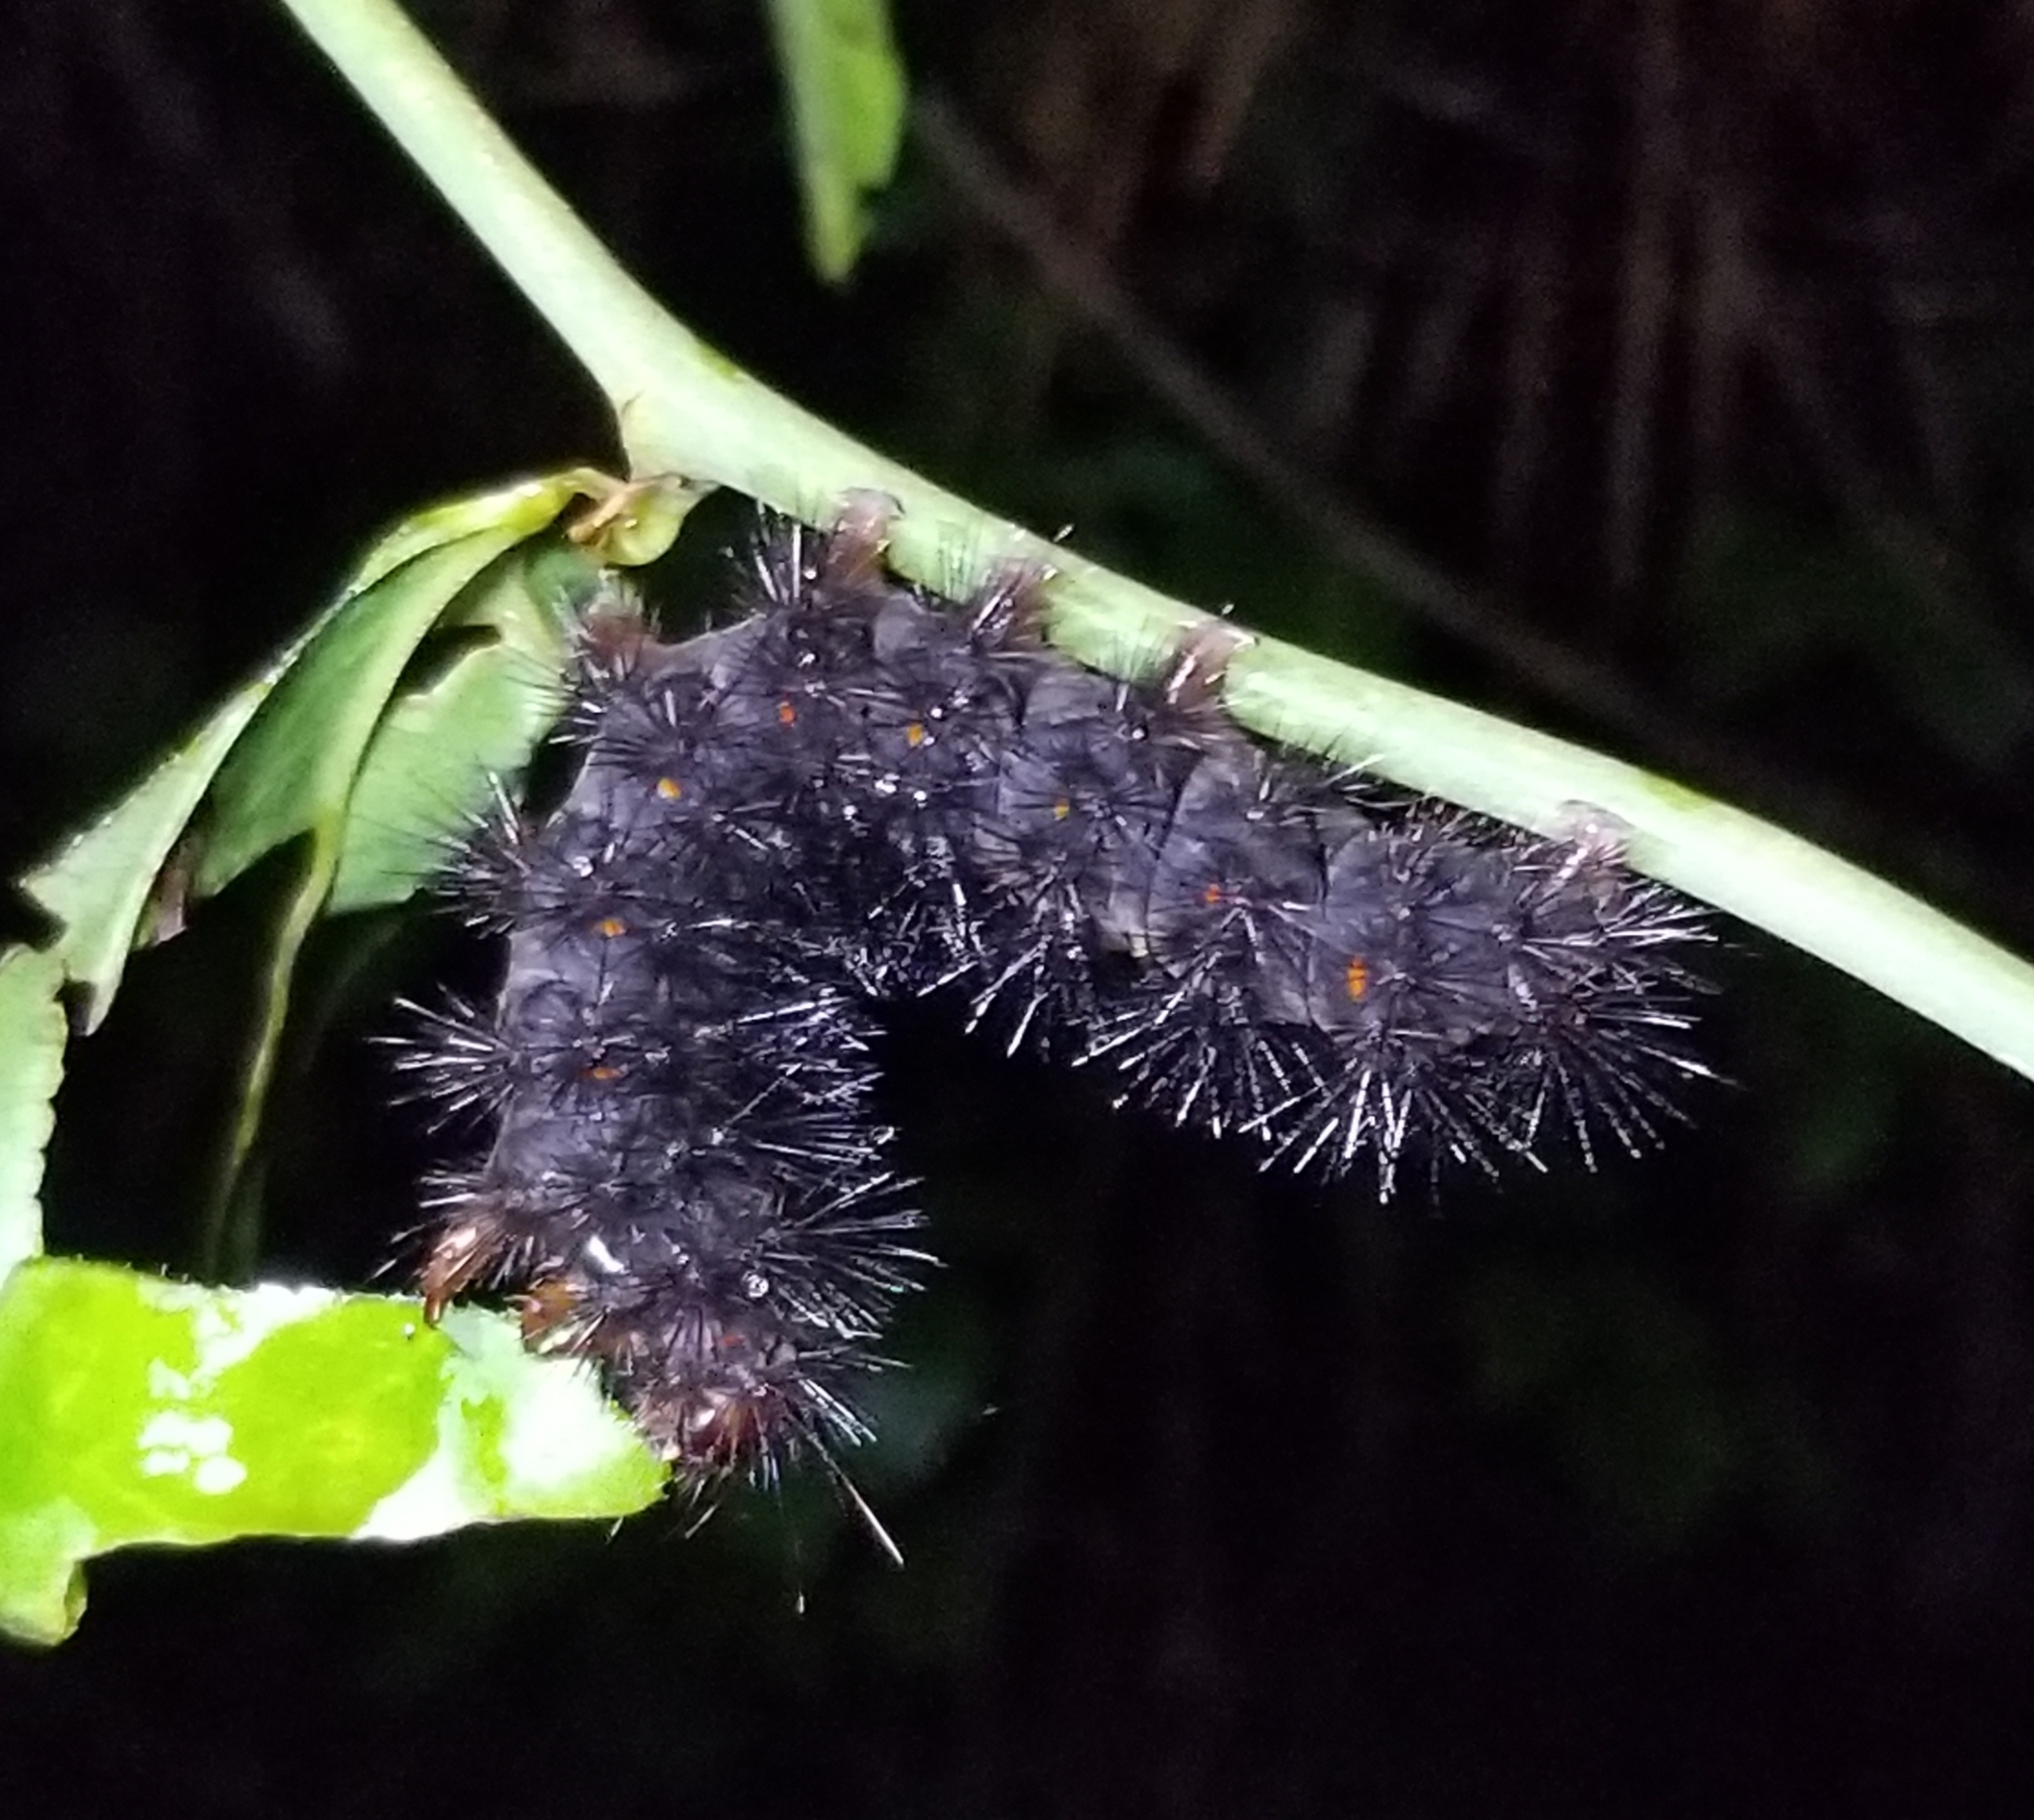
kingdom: Animalia
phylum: Arthropoda
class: Insecta
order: Lepidoptera
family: Erebidae
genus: Hypercompe
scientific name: Hypercompe scribonia
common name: Giant leopard moth
